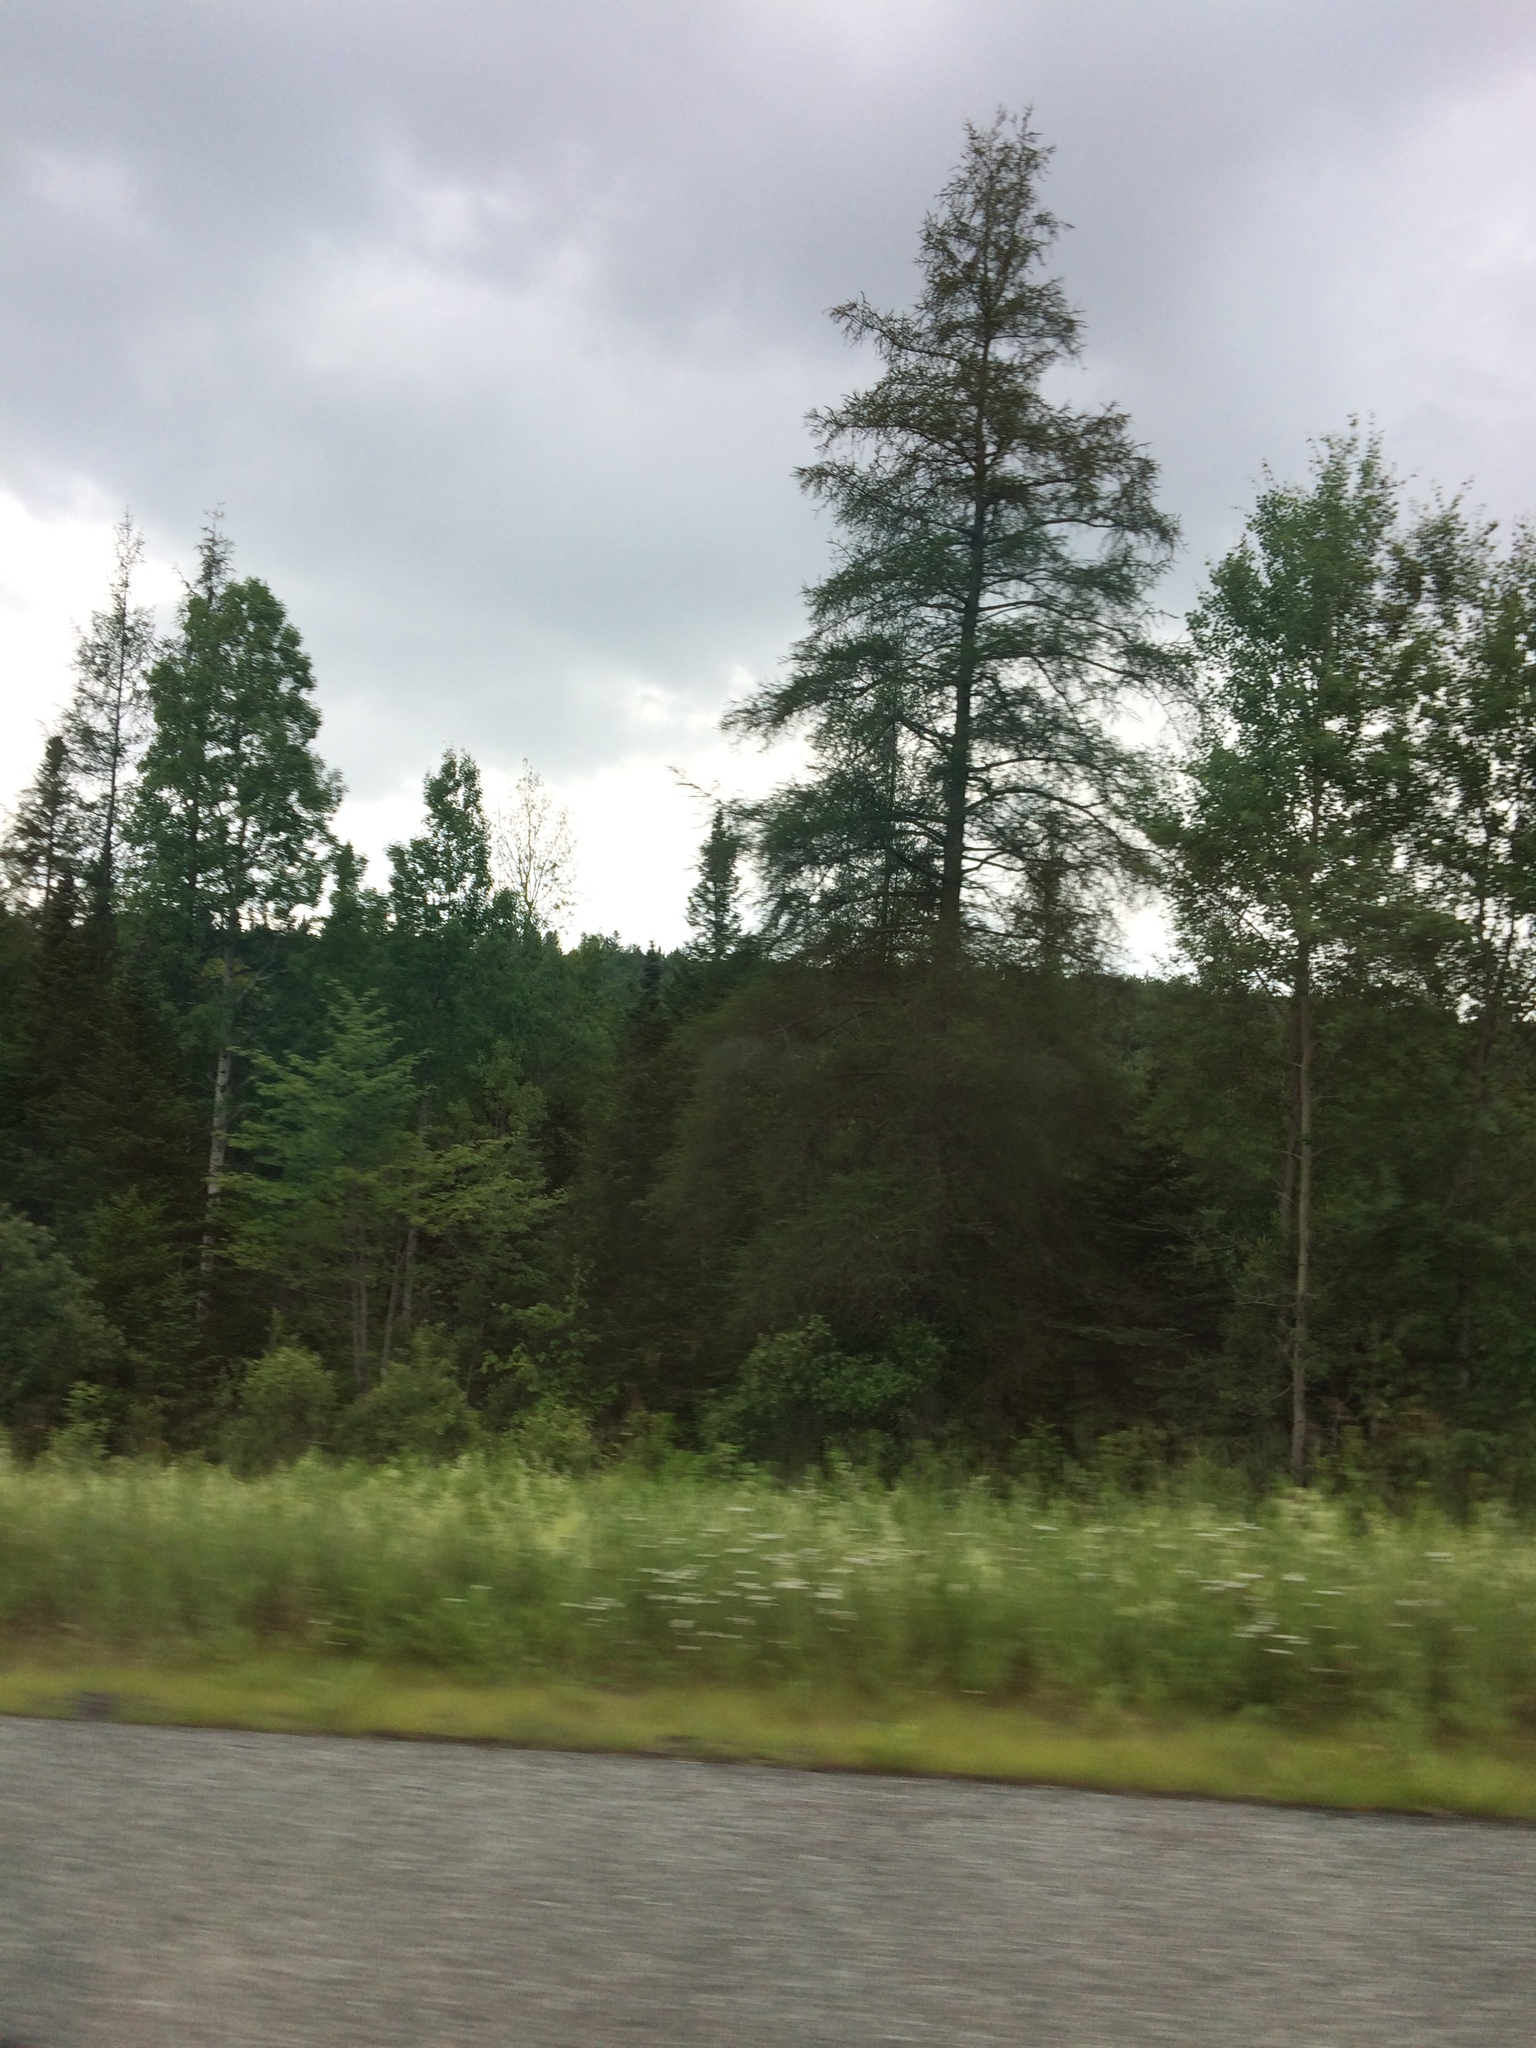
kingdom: Plantae
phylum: Tracheophyta
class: Pinopsida
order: Pinales
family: Pinaceae
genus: Larix
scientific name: Larix laricina
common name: American larch
